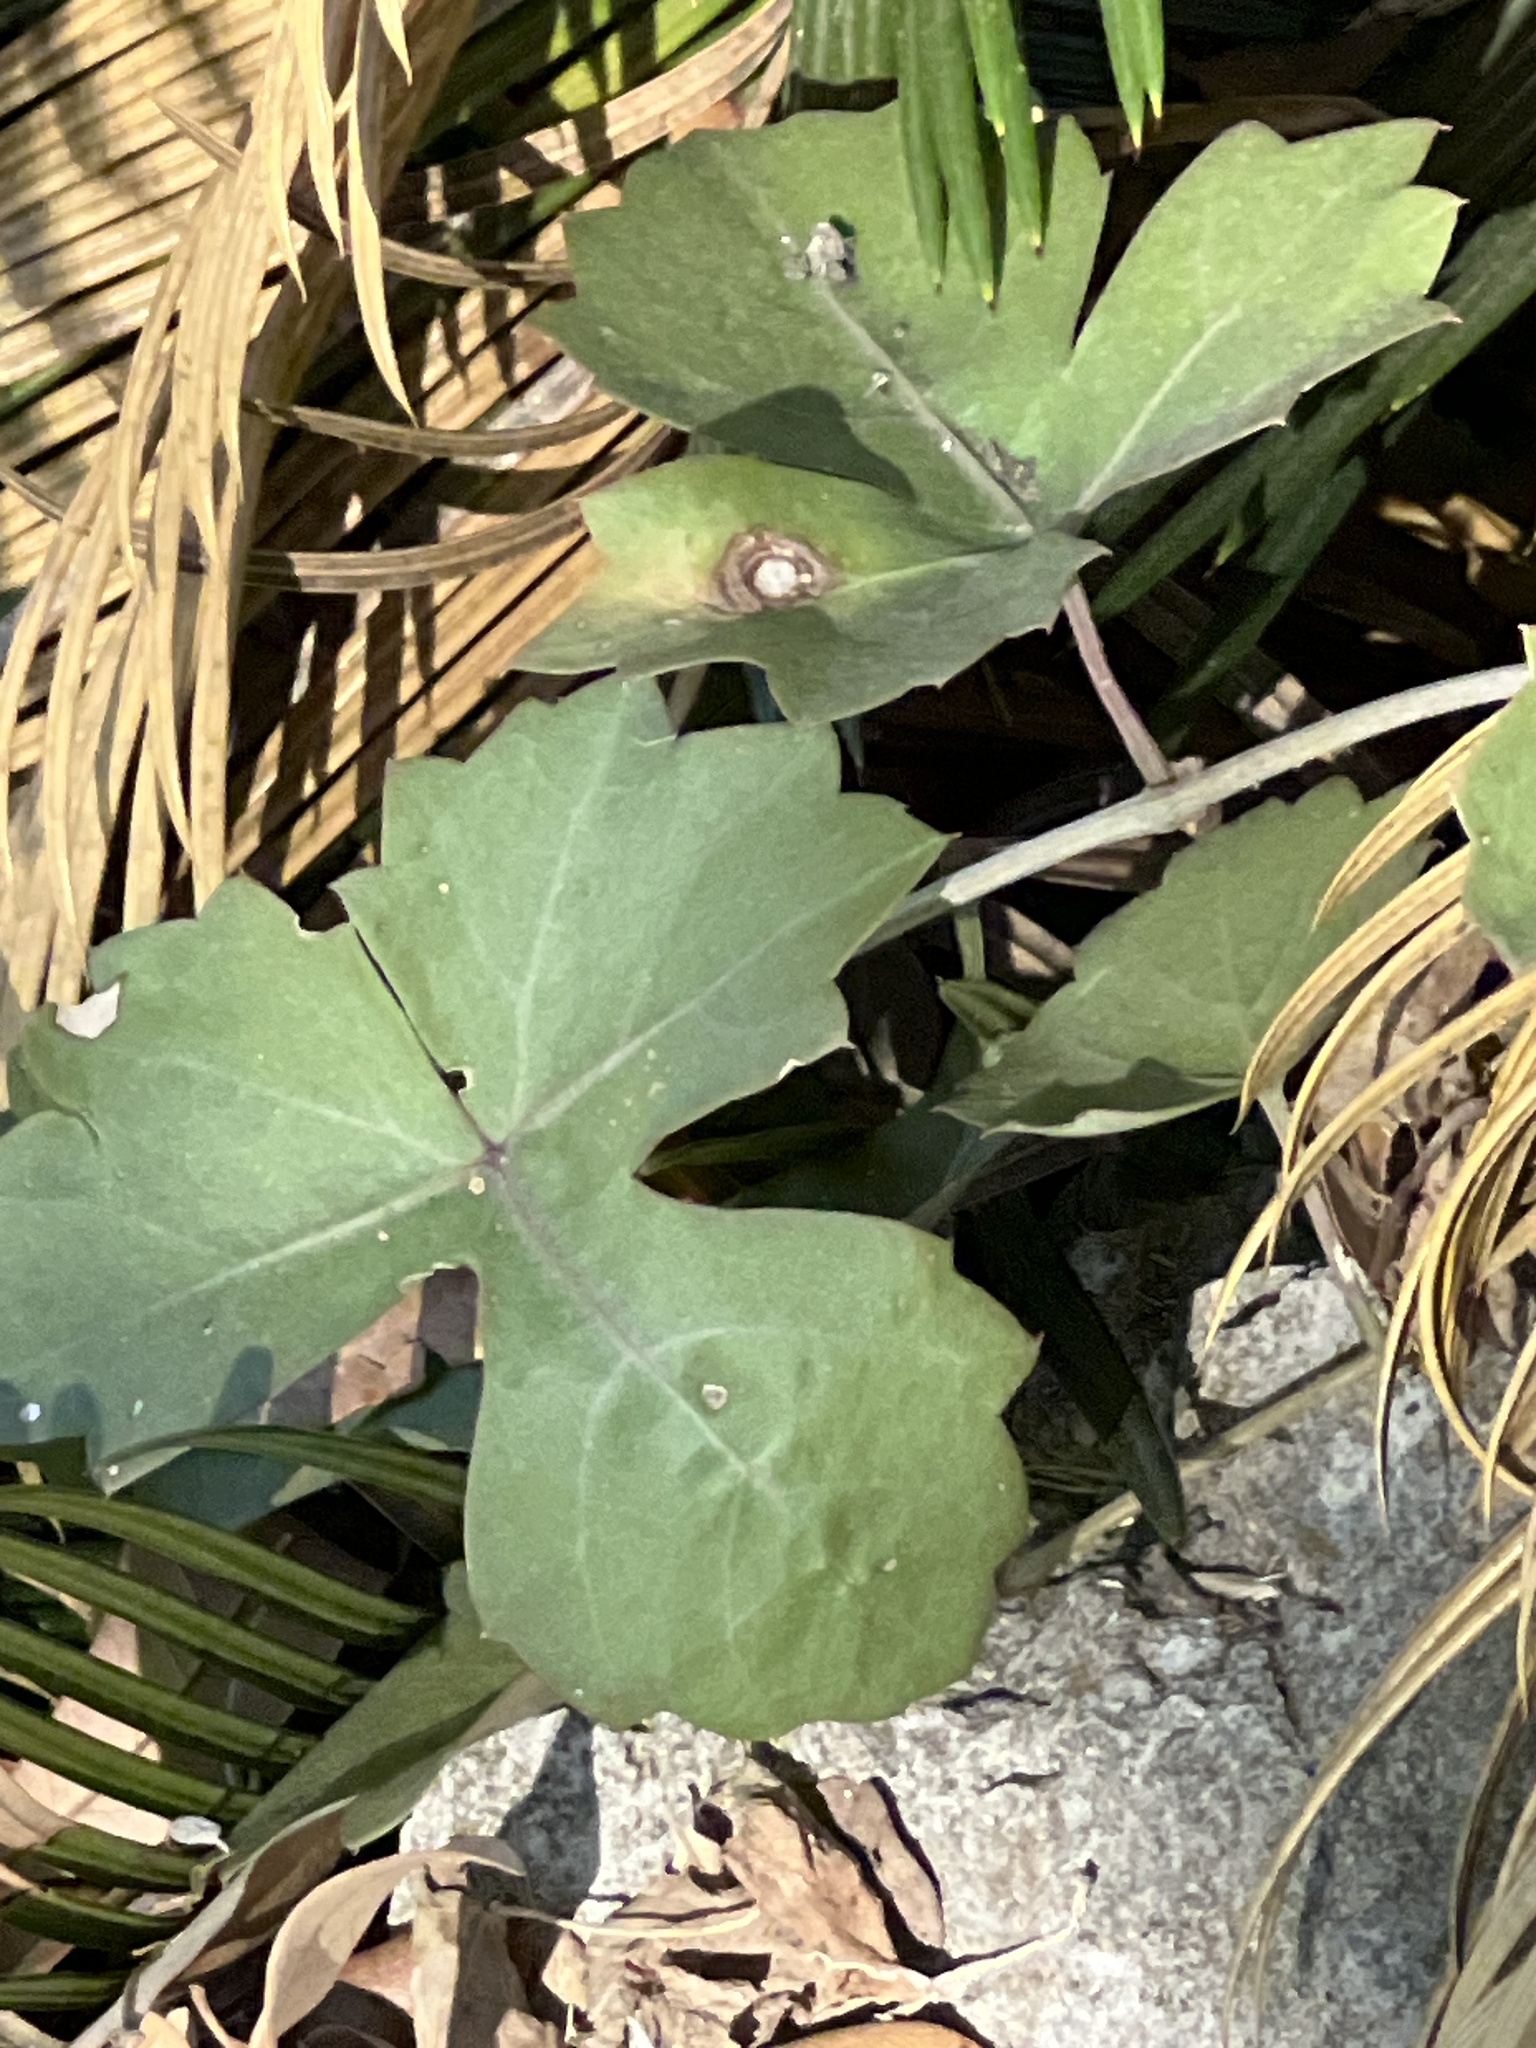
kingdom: Plantae
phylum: Tracheophyta
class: Magnoliopsida
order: Vitales
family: Vitaceae
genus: Cissus
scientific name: Cissus trifoliata
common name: Vine-sorrel
